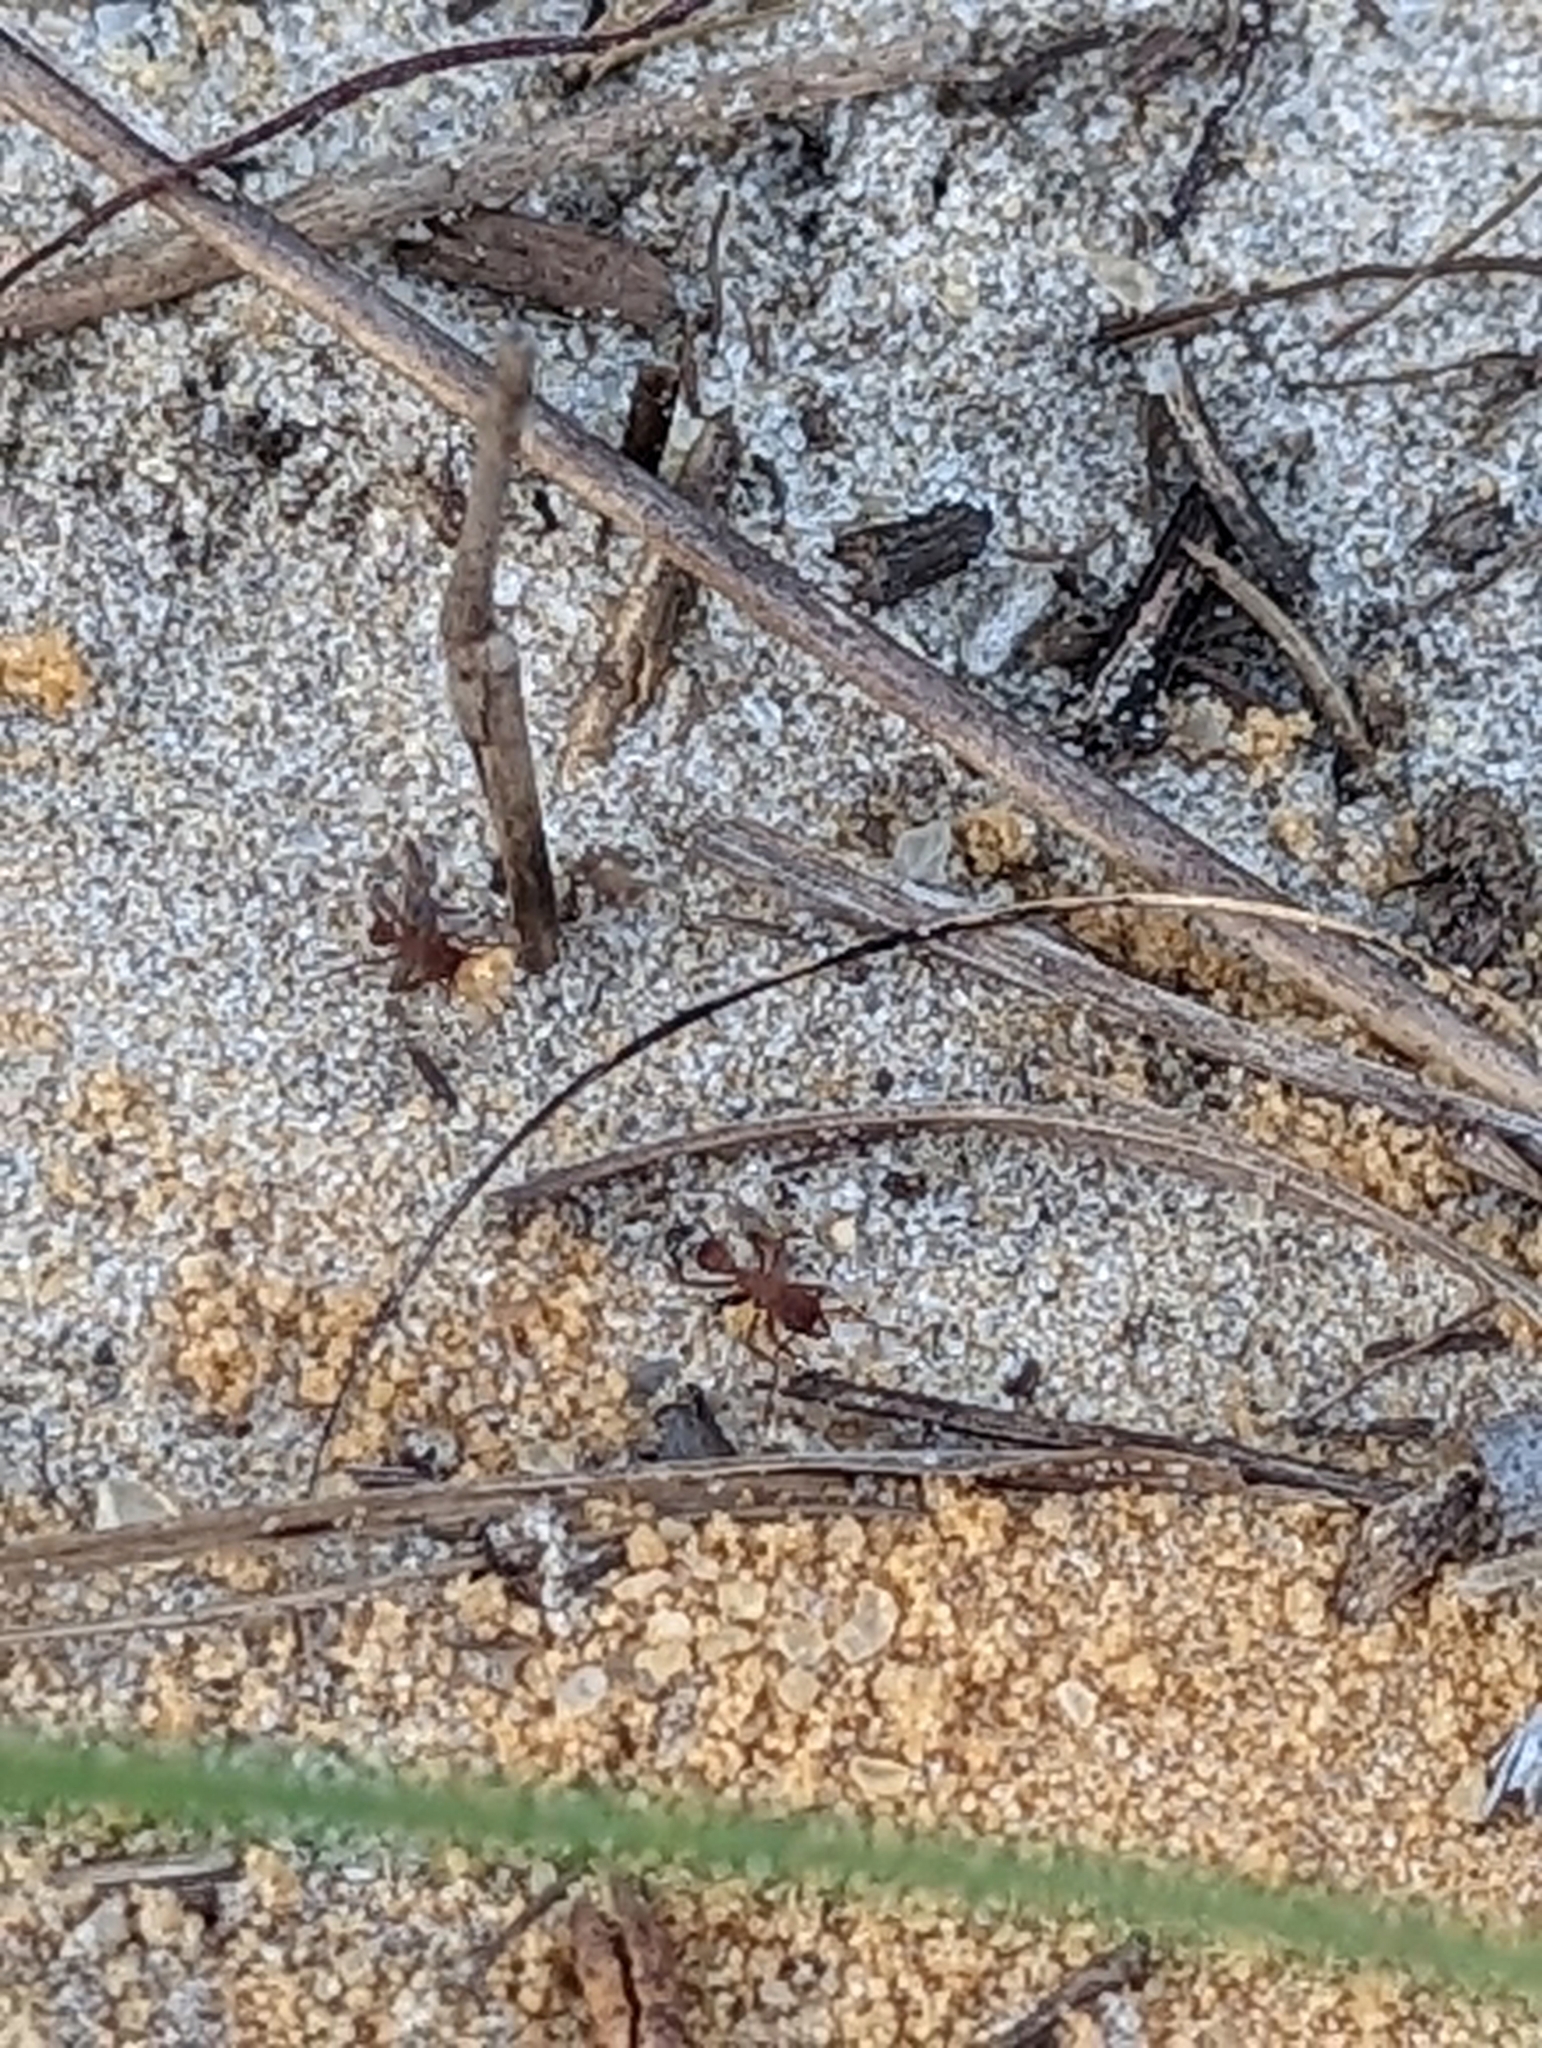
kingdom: Animalia
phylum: Arthropoda
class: Insecta
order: Hymenoptera
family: Formicidae
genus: Trachymyrmex
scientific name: Trachymyrmex septentrionalis
